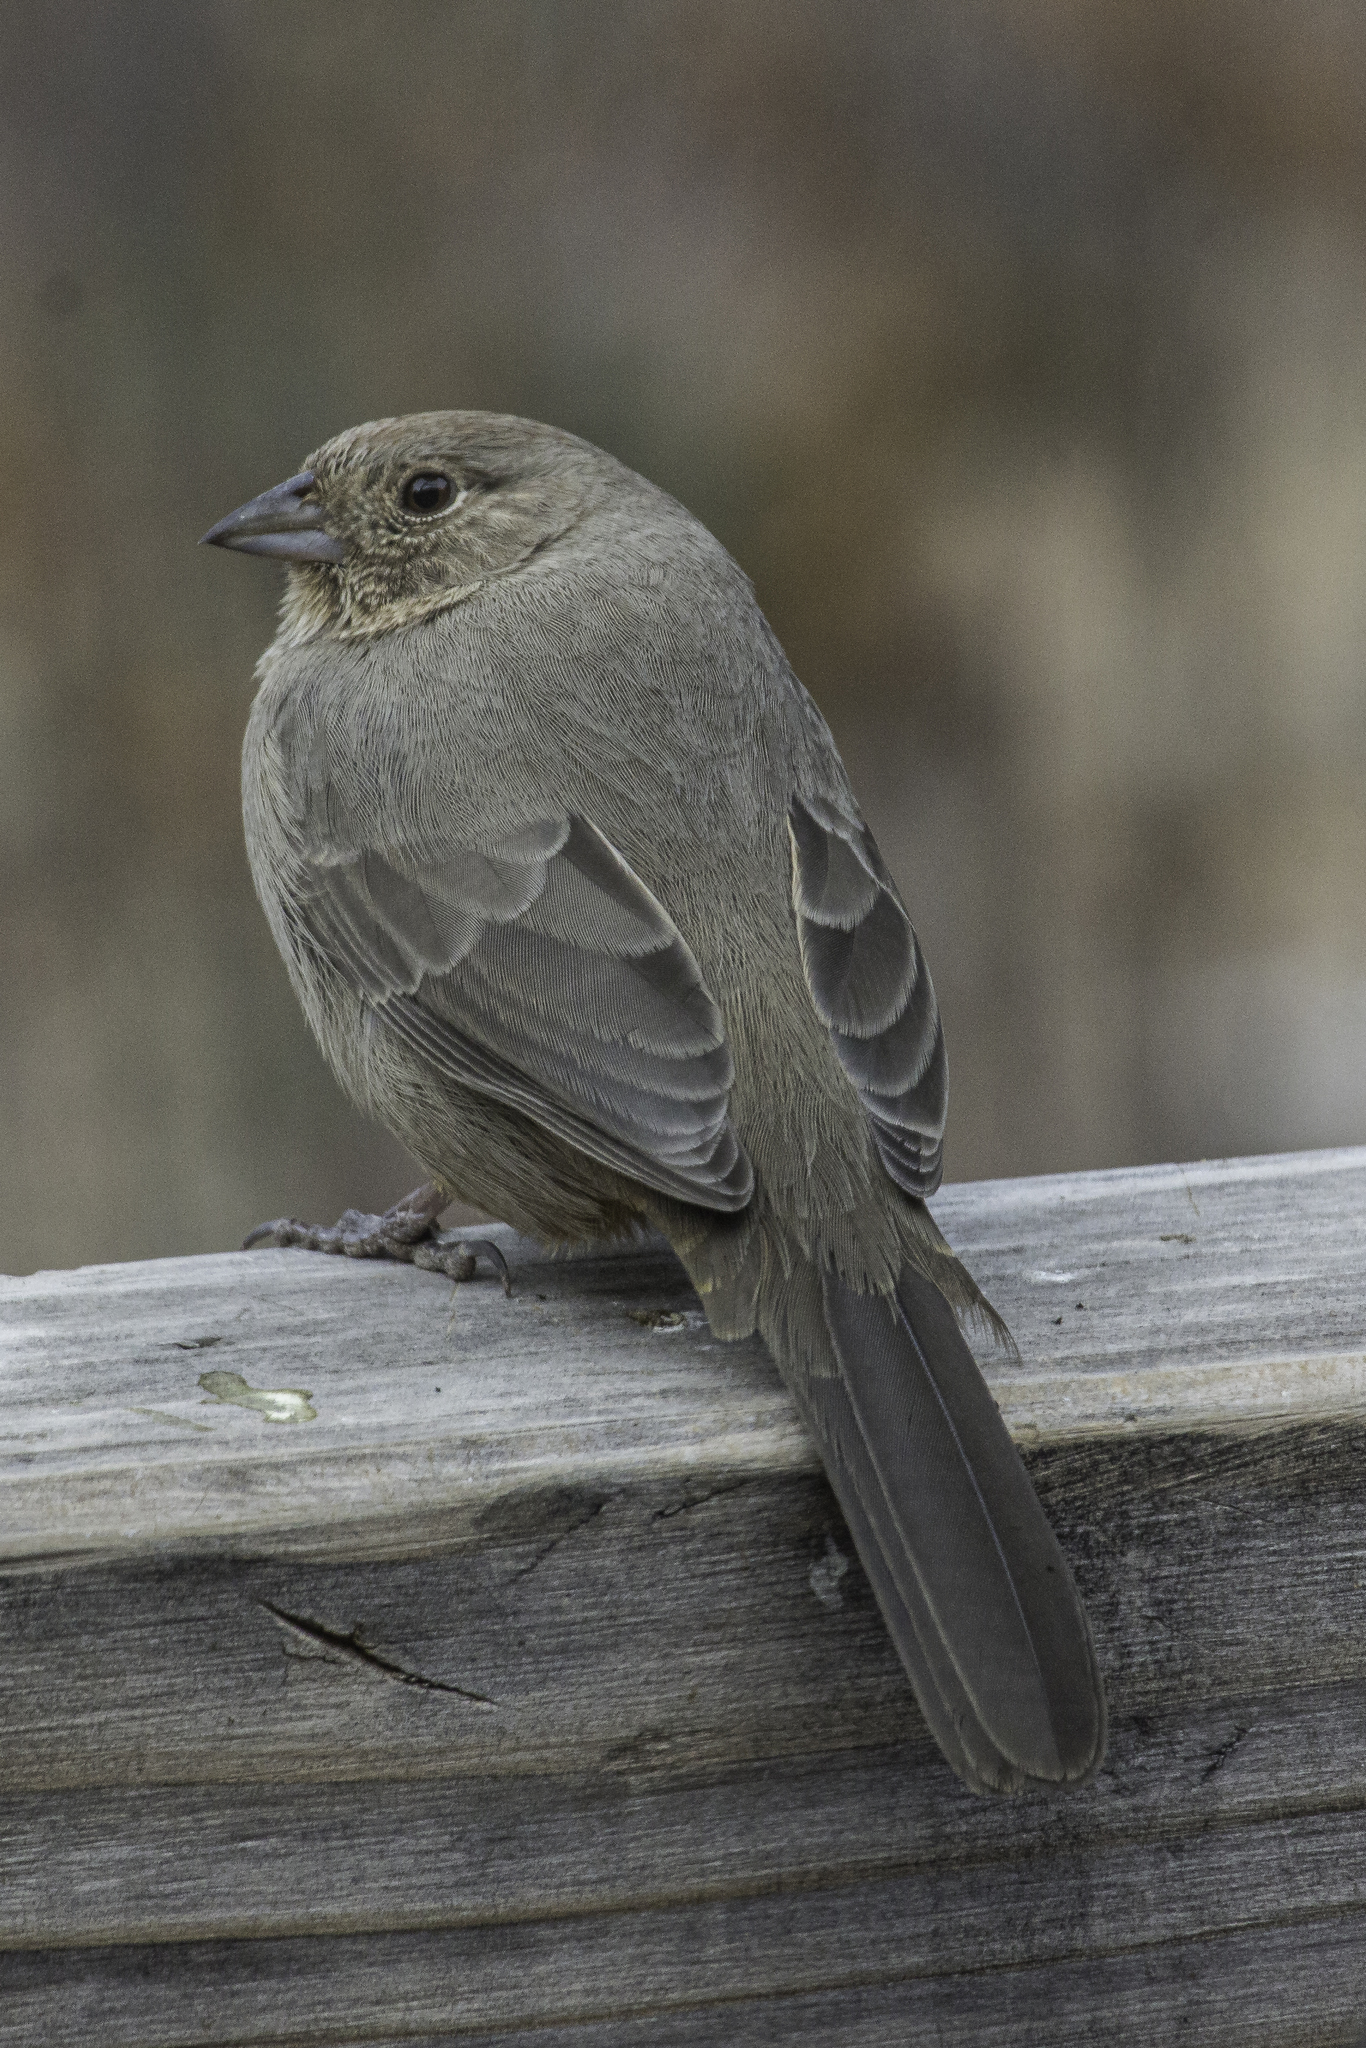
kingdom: Animalia
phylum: Chordata
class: Aves
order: Passeriformes
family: Passerellidae
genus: Melozone
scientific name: Melozone fusca
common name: Canyon towhee
